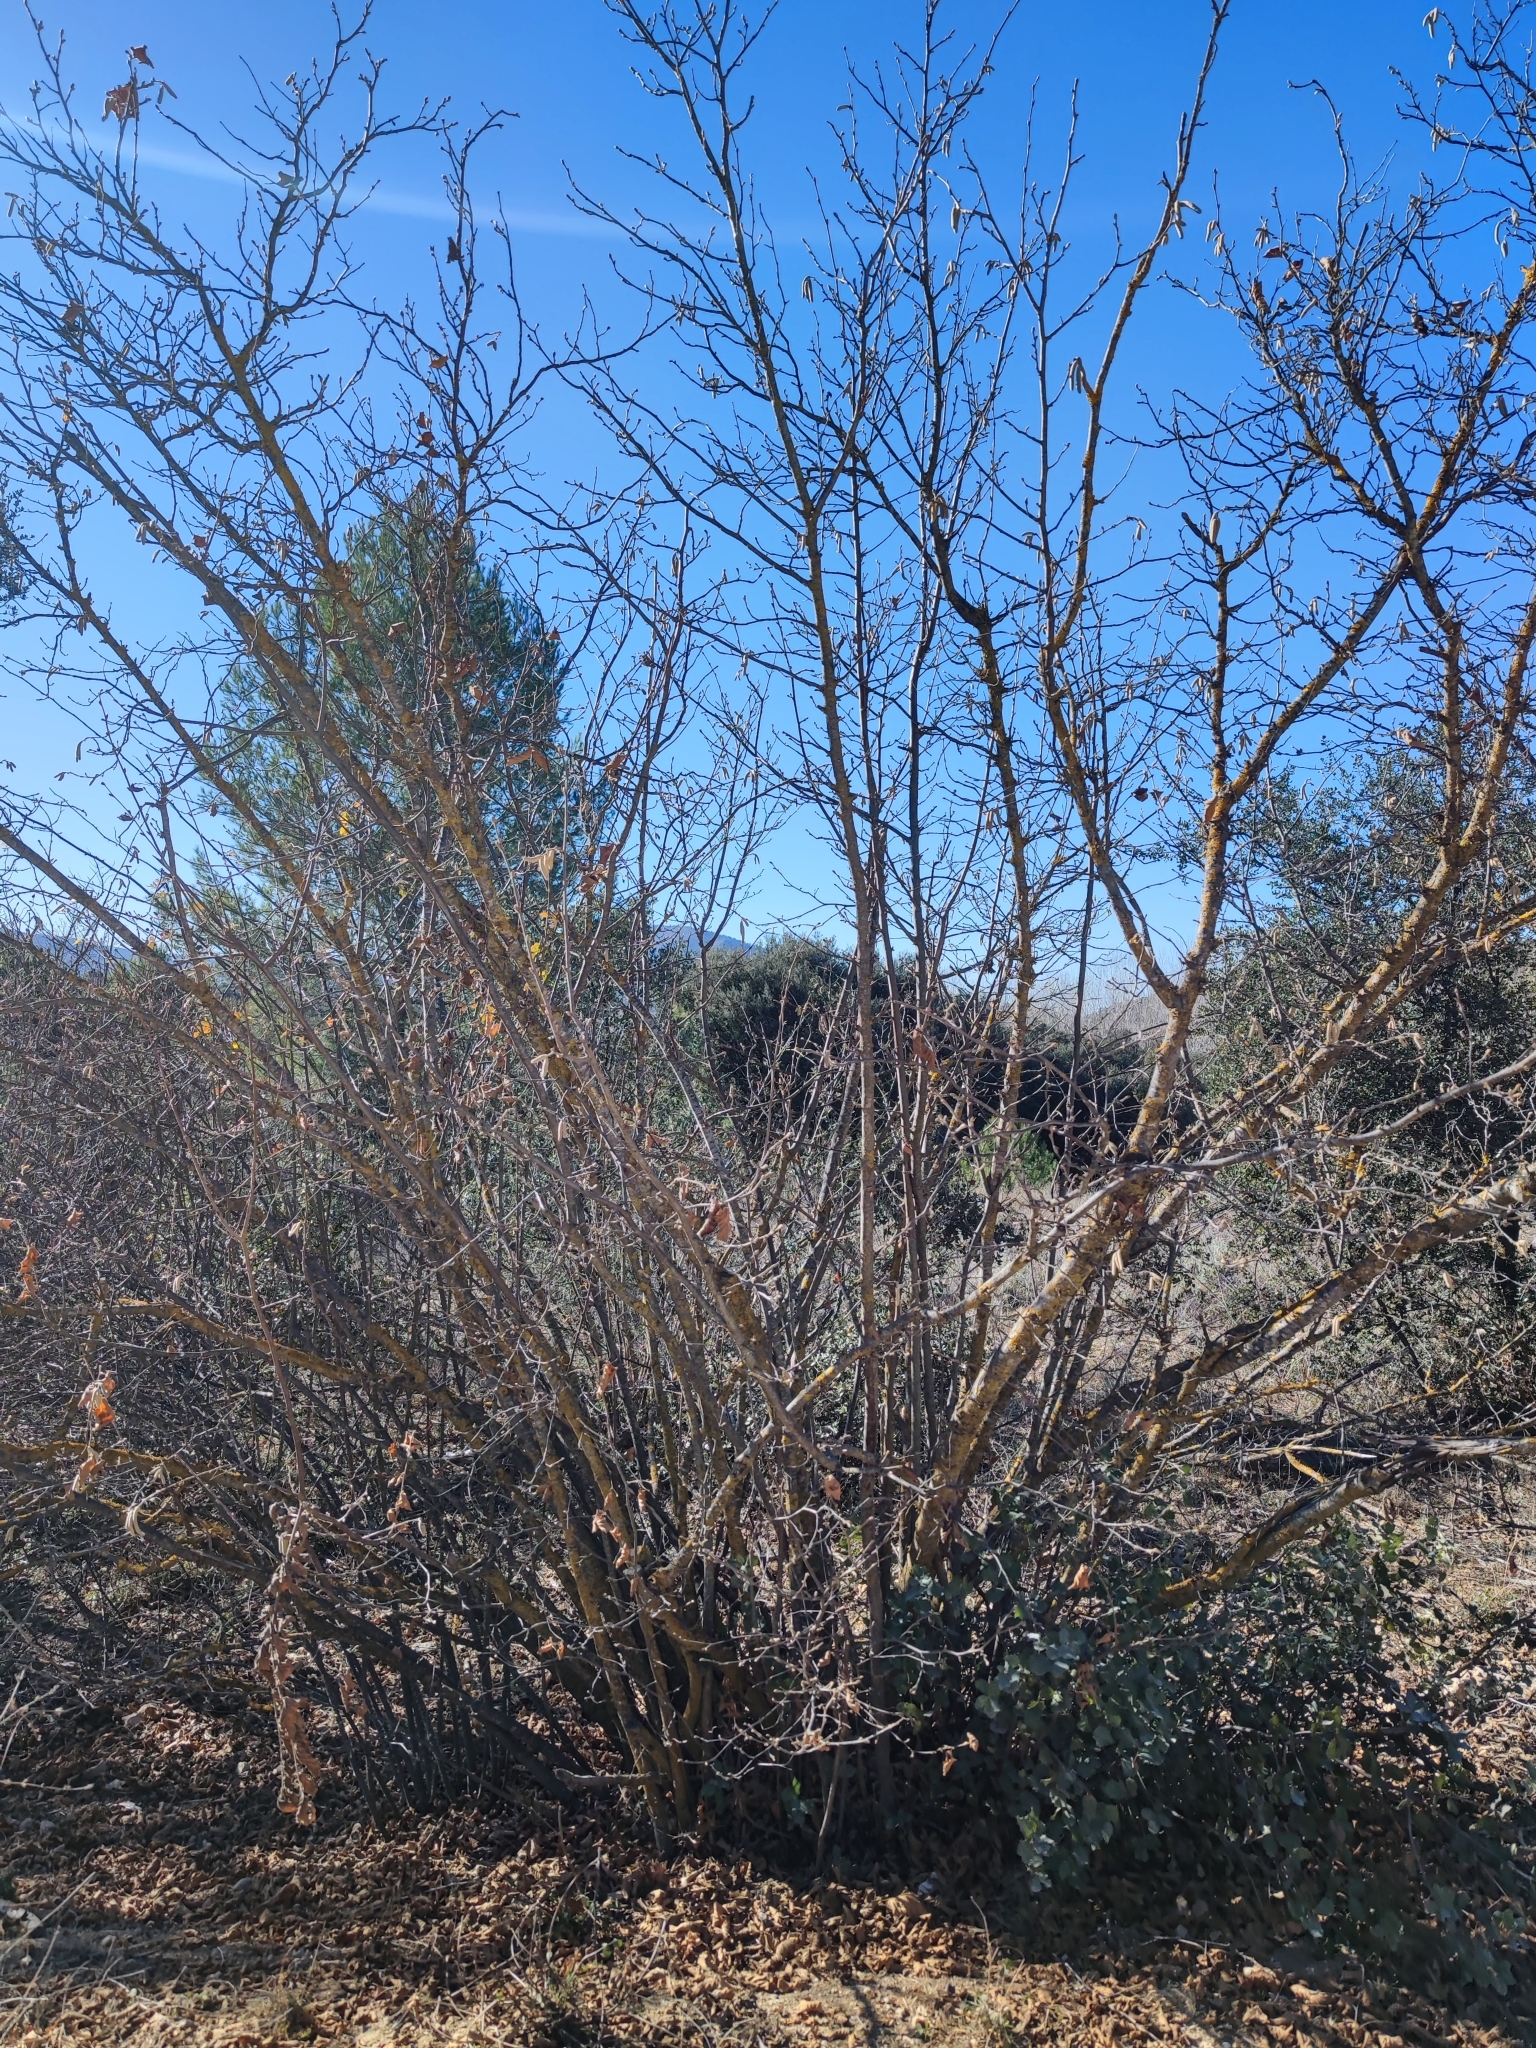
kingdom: Plantae
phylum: Tracheophyta
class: Magnoliopsida
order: Fagales
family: Betulaceae
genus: Corylus
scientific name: Corylus avellana
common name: European hazel
